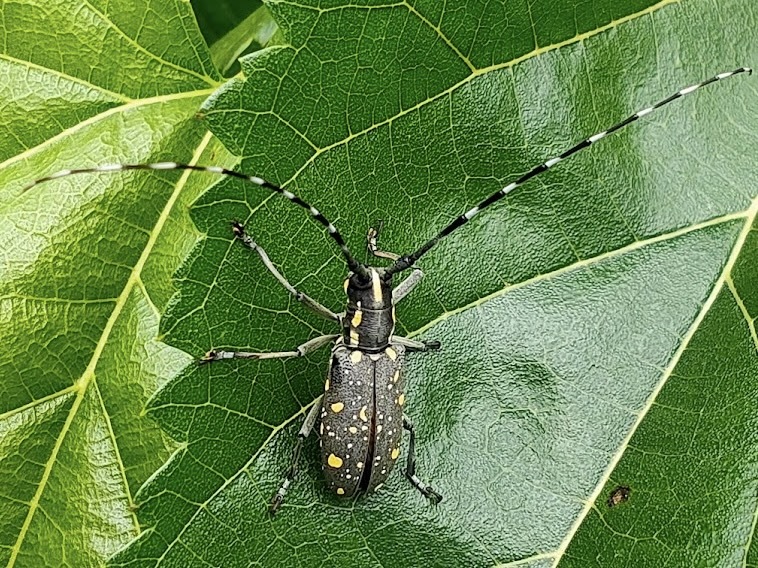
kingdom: Animalia
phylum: Arthropoda
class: Insecta
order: Coleoptera
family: Cerambycidae
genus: Psacothea
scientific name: Psacothea hilaris
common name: Yellow-spotted longicorn beetle
